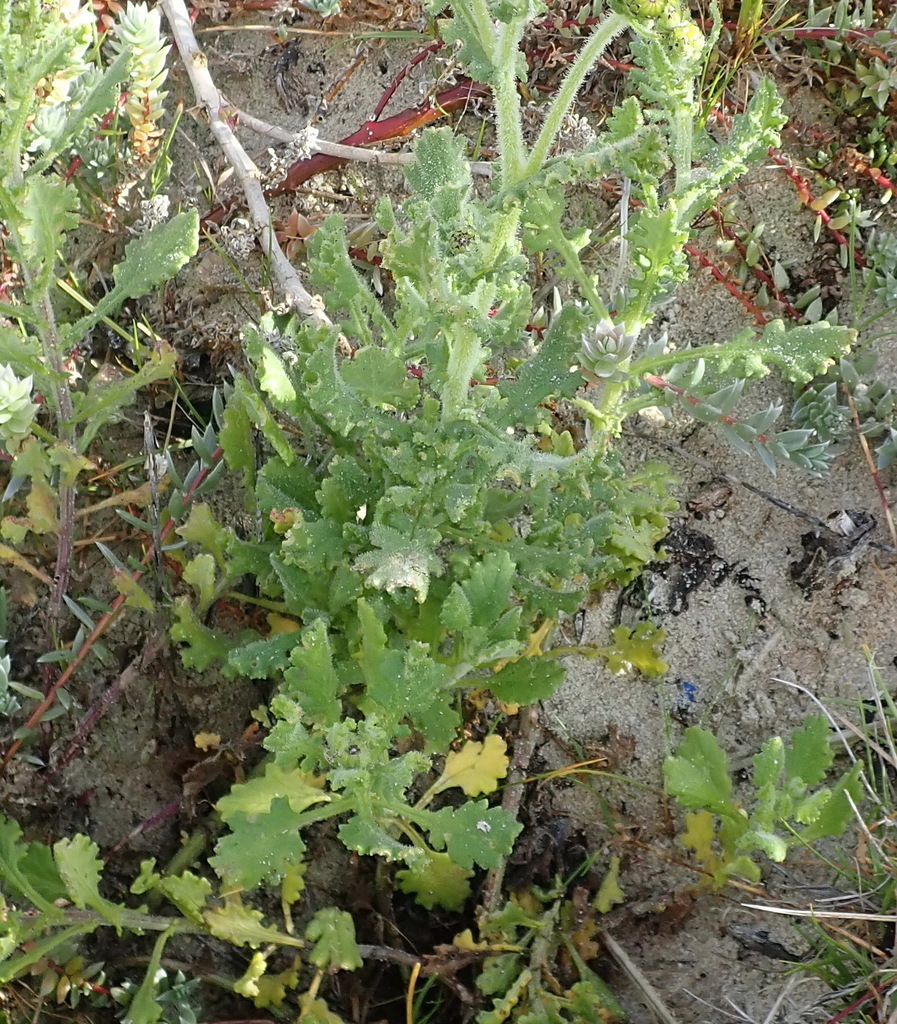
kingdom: Plantae
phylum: Tracheophyta
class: Magnoliopsida
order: Asterales
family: Asteraceae
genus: Senecio
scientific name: Senecio elegans
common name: Purple groundsel
